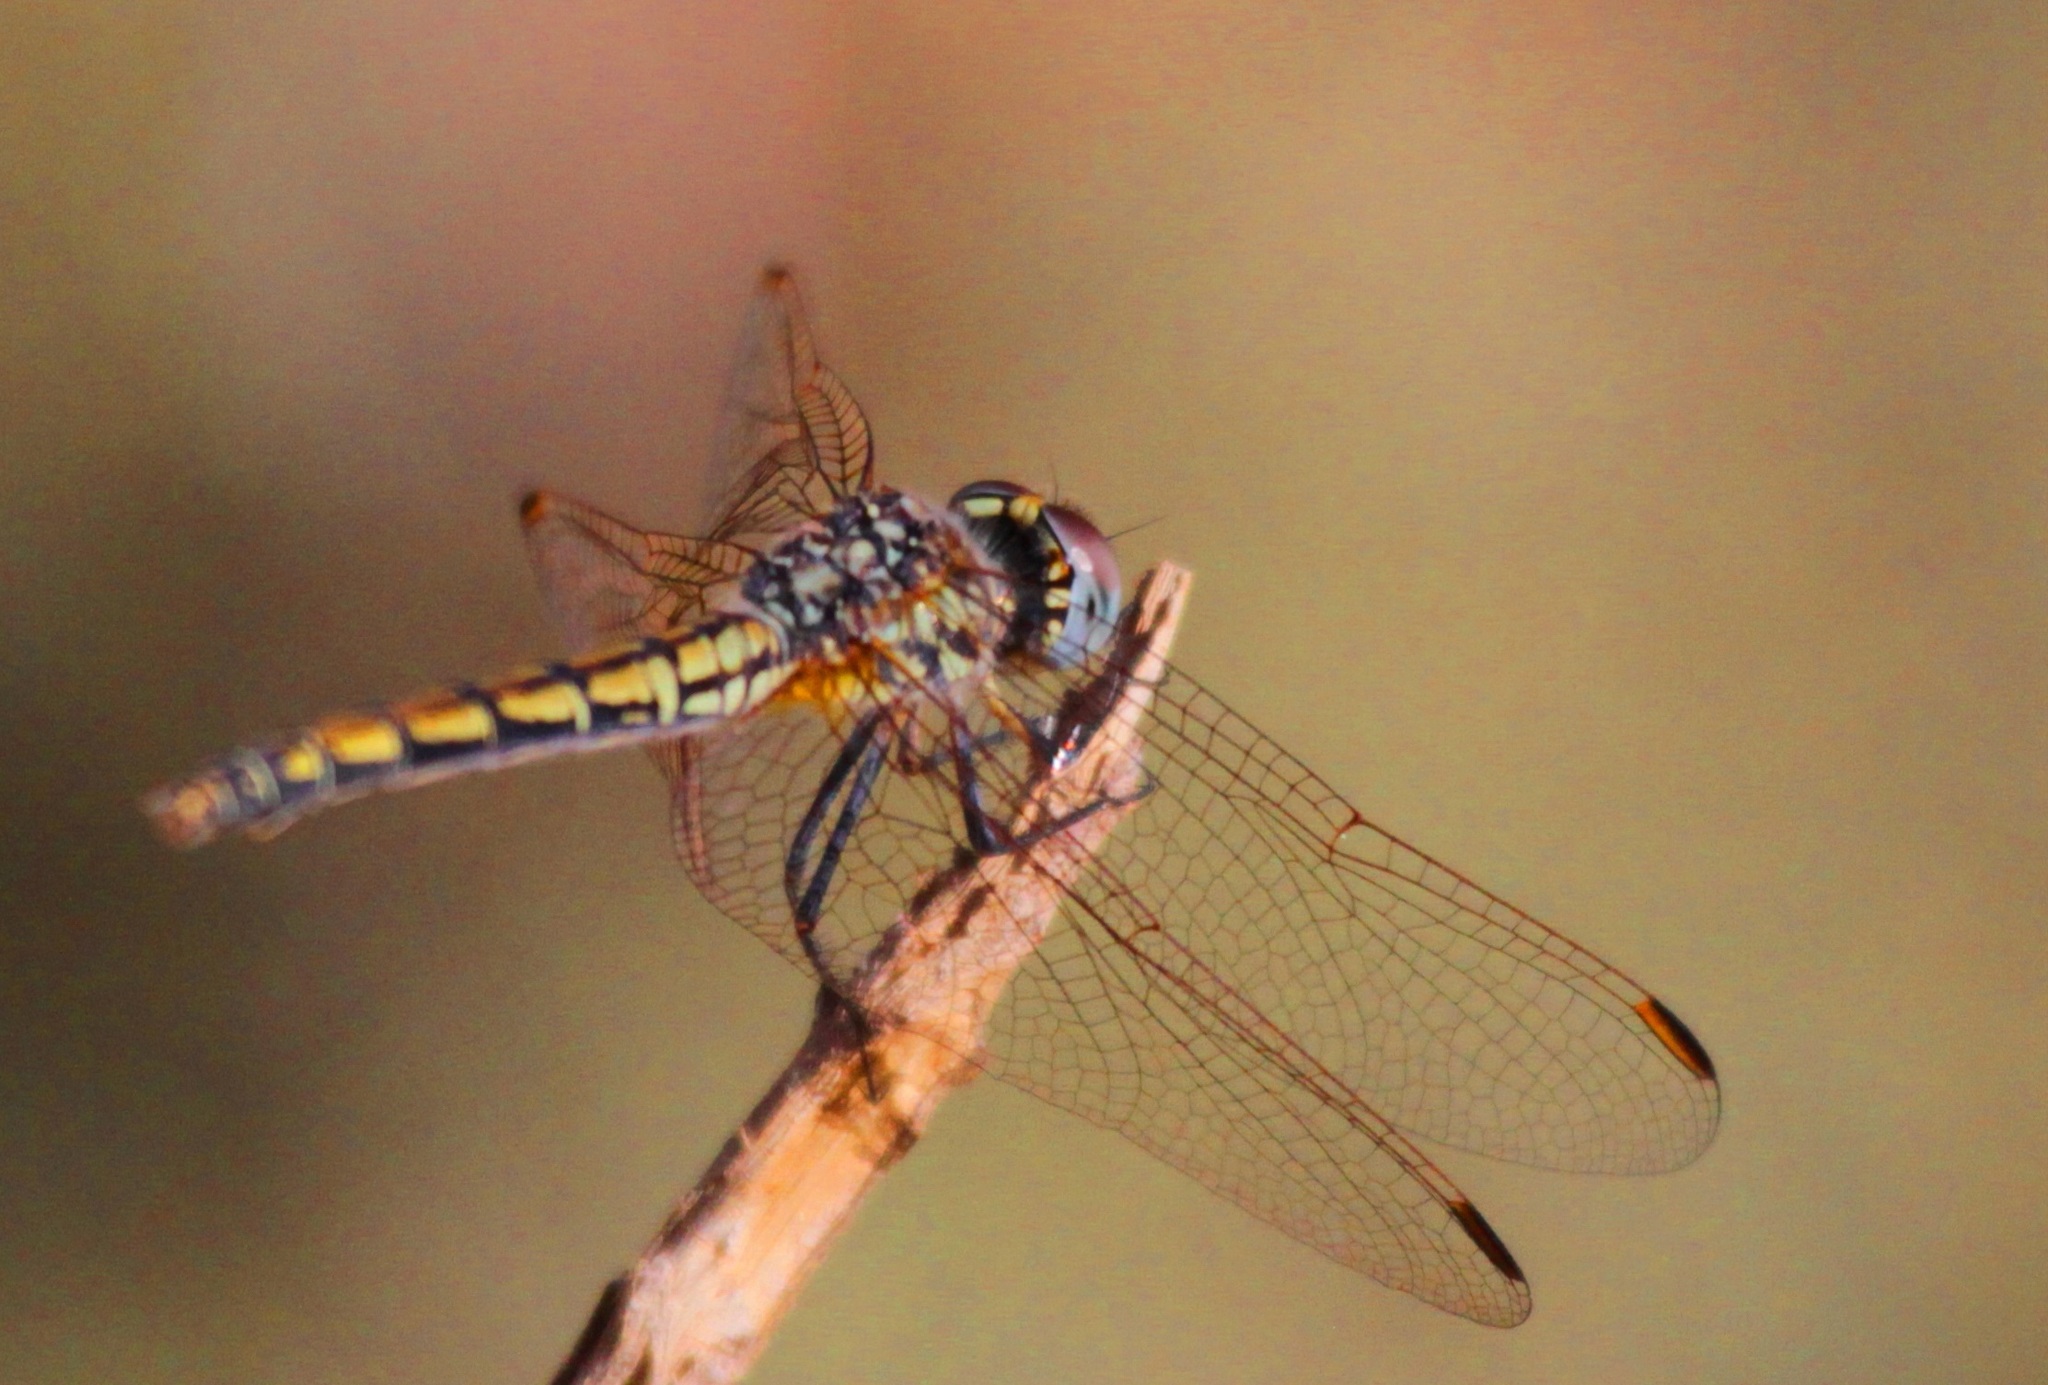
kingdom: Animalia
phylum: Arthropoda
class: Insecta
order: Odonata
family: Libellulidae
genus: Trithemis
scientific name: Trithemis arteriosa
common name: Red-veined dropwing
